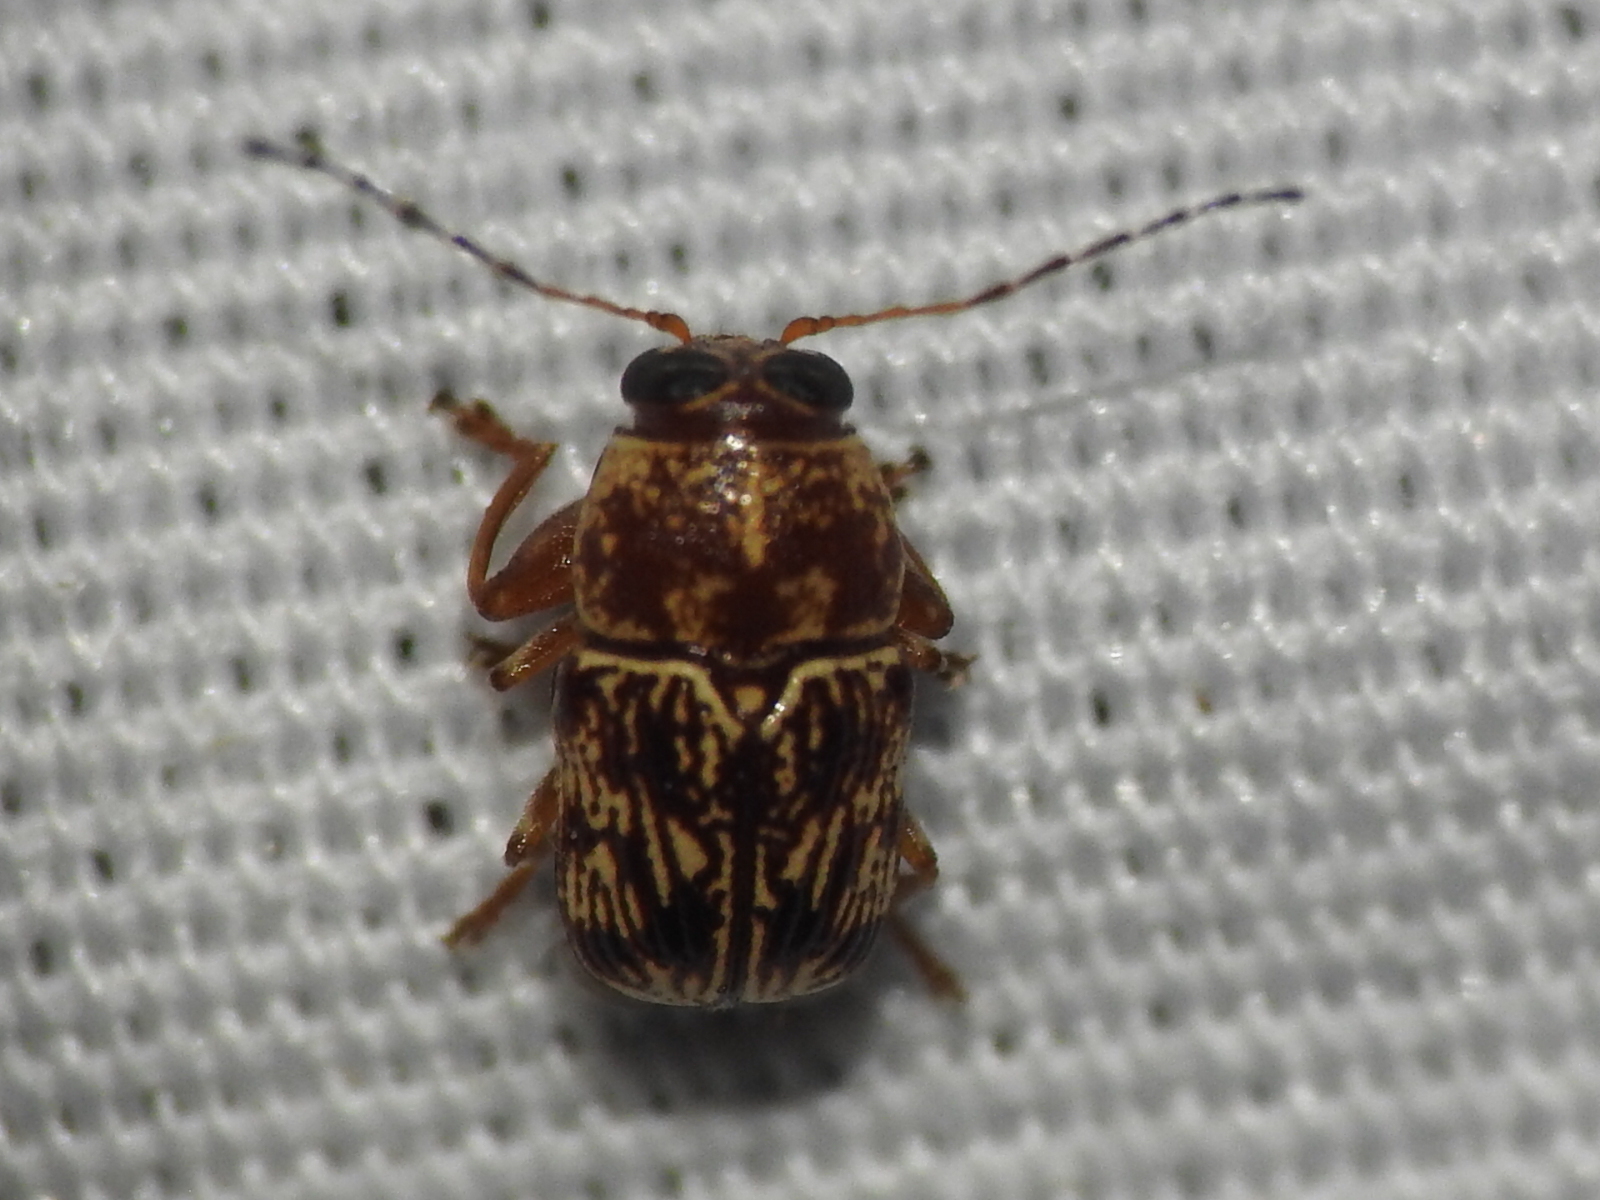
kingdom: Animalia
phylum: Arthropoda
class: Insecta
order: Coleoptera
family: Chrysomelidae
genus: Pachybrachis
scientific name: Pachybrachis
